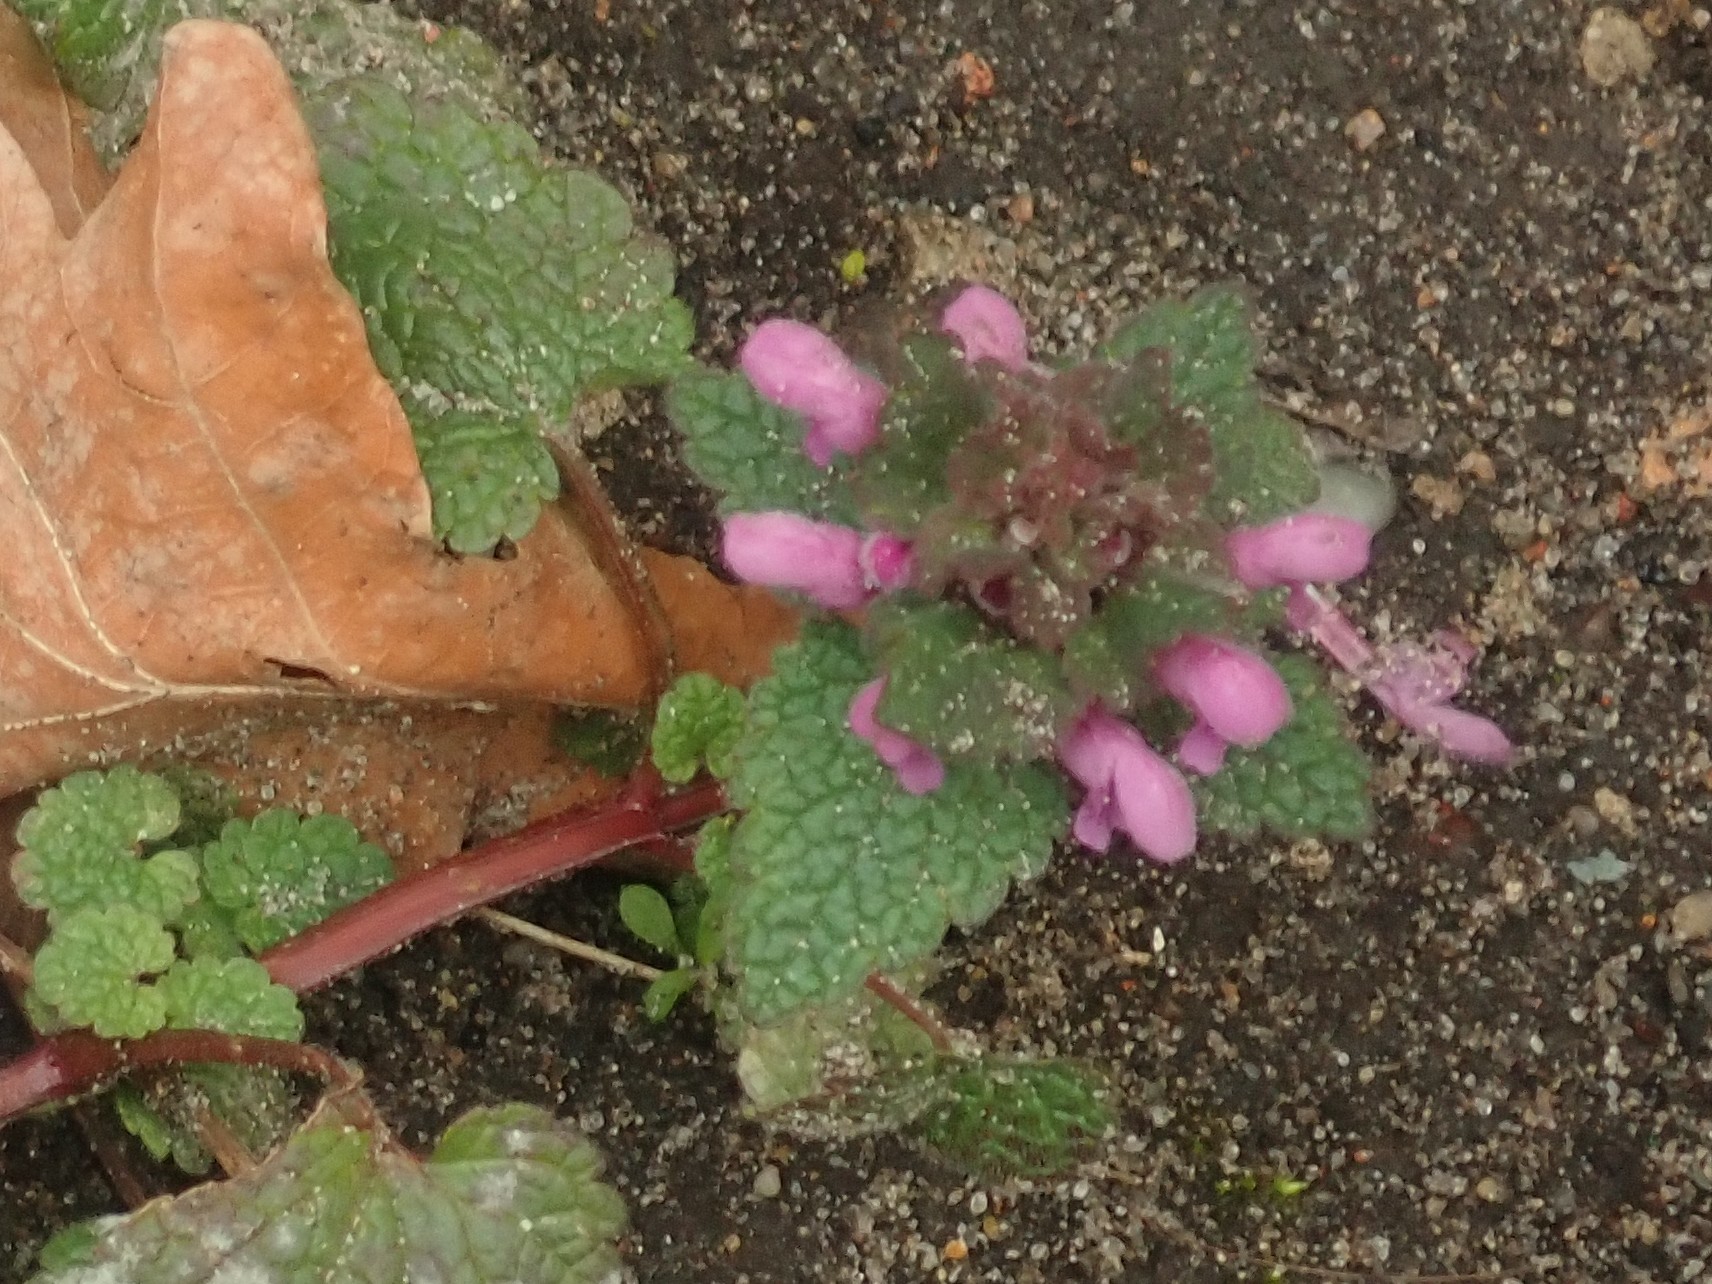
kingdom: Plantae
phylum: Tracheophyta
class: Magnoliopsida
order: Lamiales
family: Lamiaceae
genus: Lamium
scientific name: Lamium purpureum
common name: Red dead-nettle
